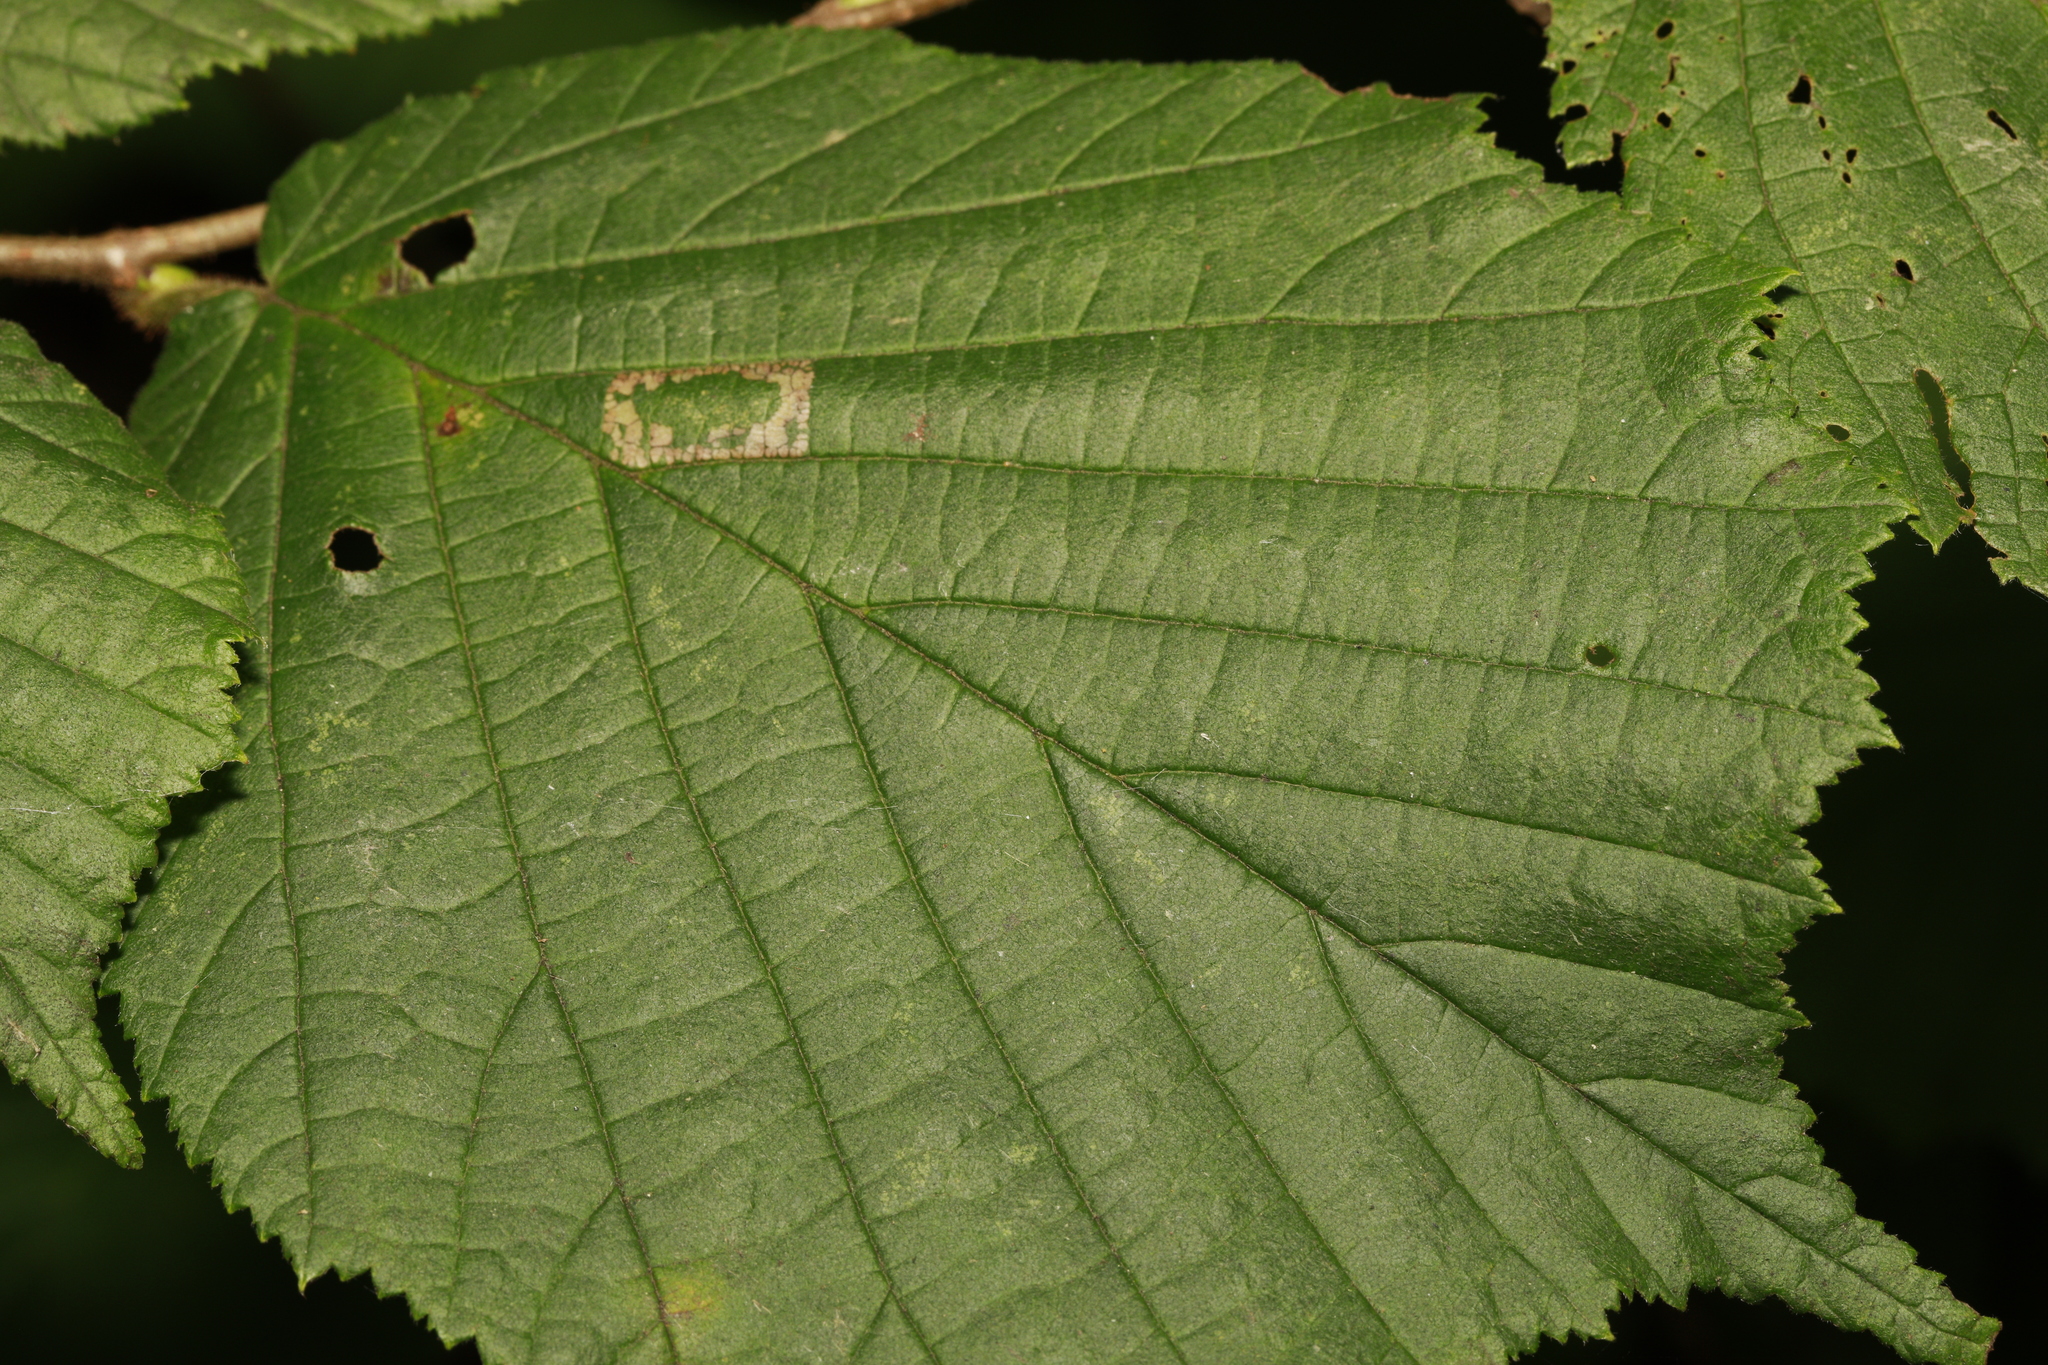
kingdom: Animalia
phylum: Arthropoda
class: Insecta
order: Lepidoptera
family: Gracillariidae
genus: Phyllonorycter
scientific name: Phyllonorycter nicellii
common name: Red hazel midget
